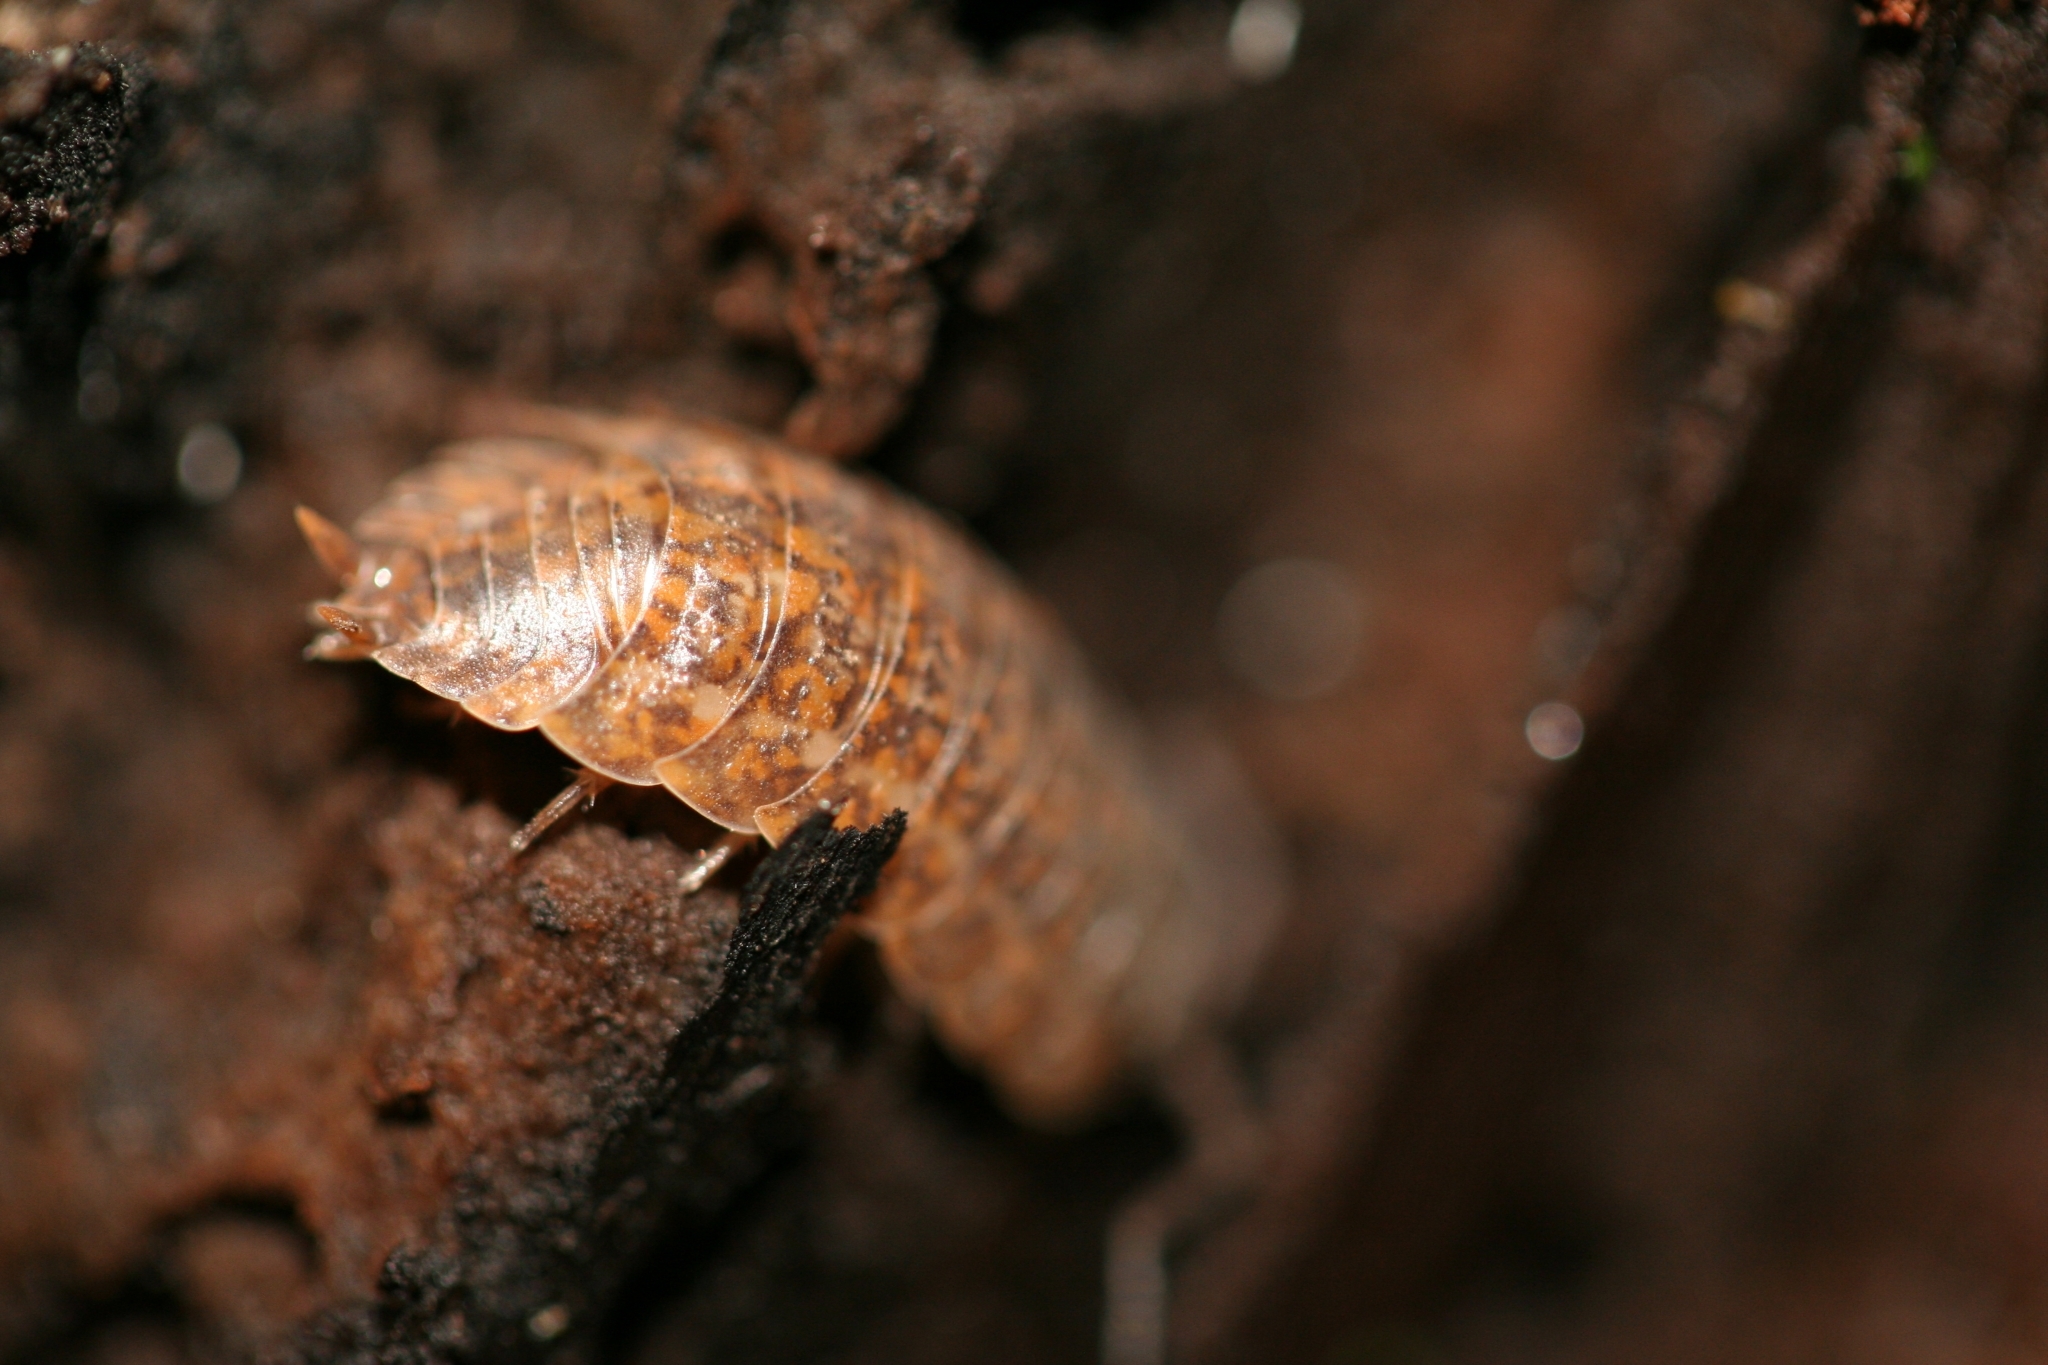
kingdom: Animalia
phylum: Arthropoda
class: Malacostraca
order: Isopoda
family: Trachelipodidae
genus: Trachelipus
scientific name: Trachelipus rathkii
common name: Isopod
